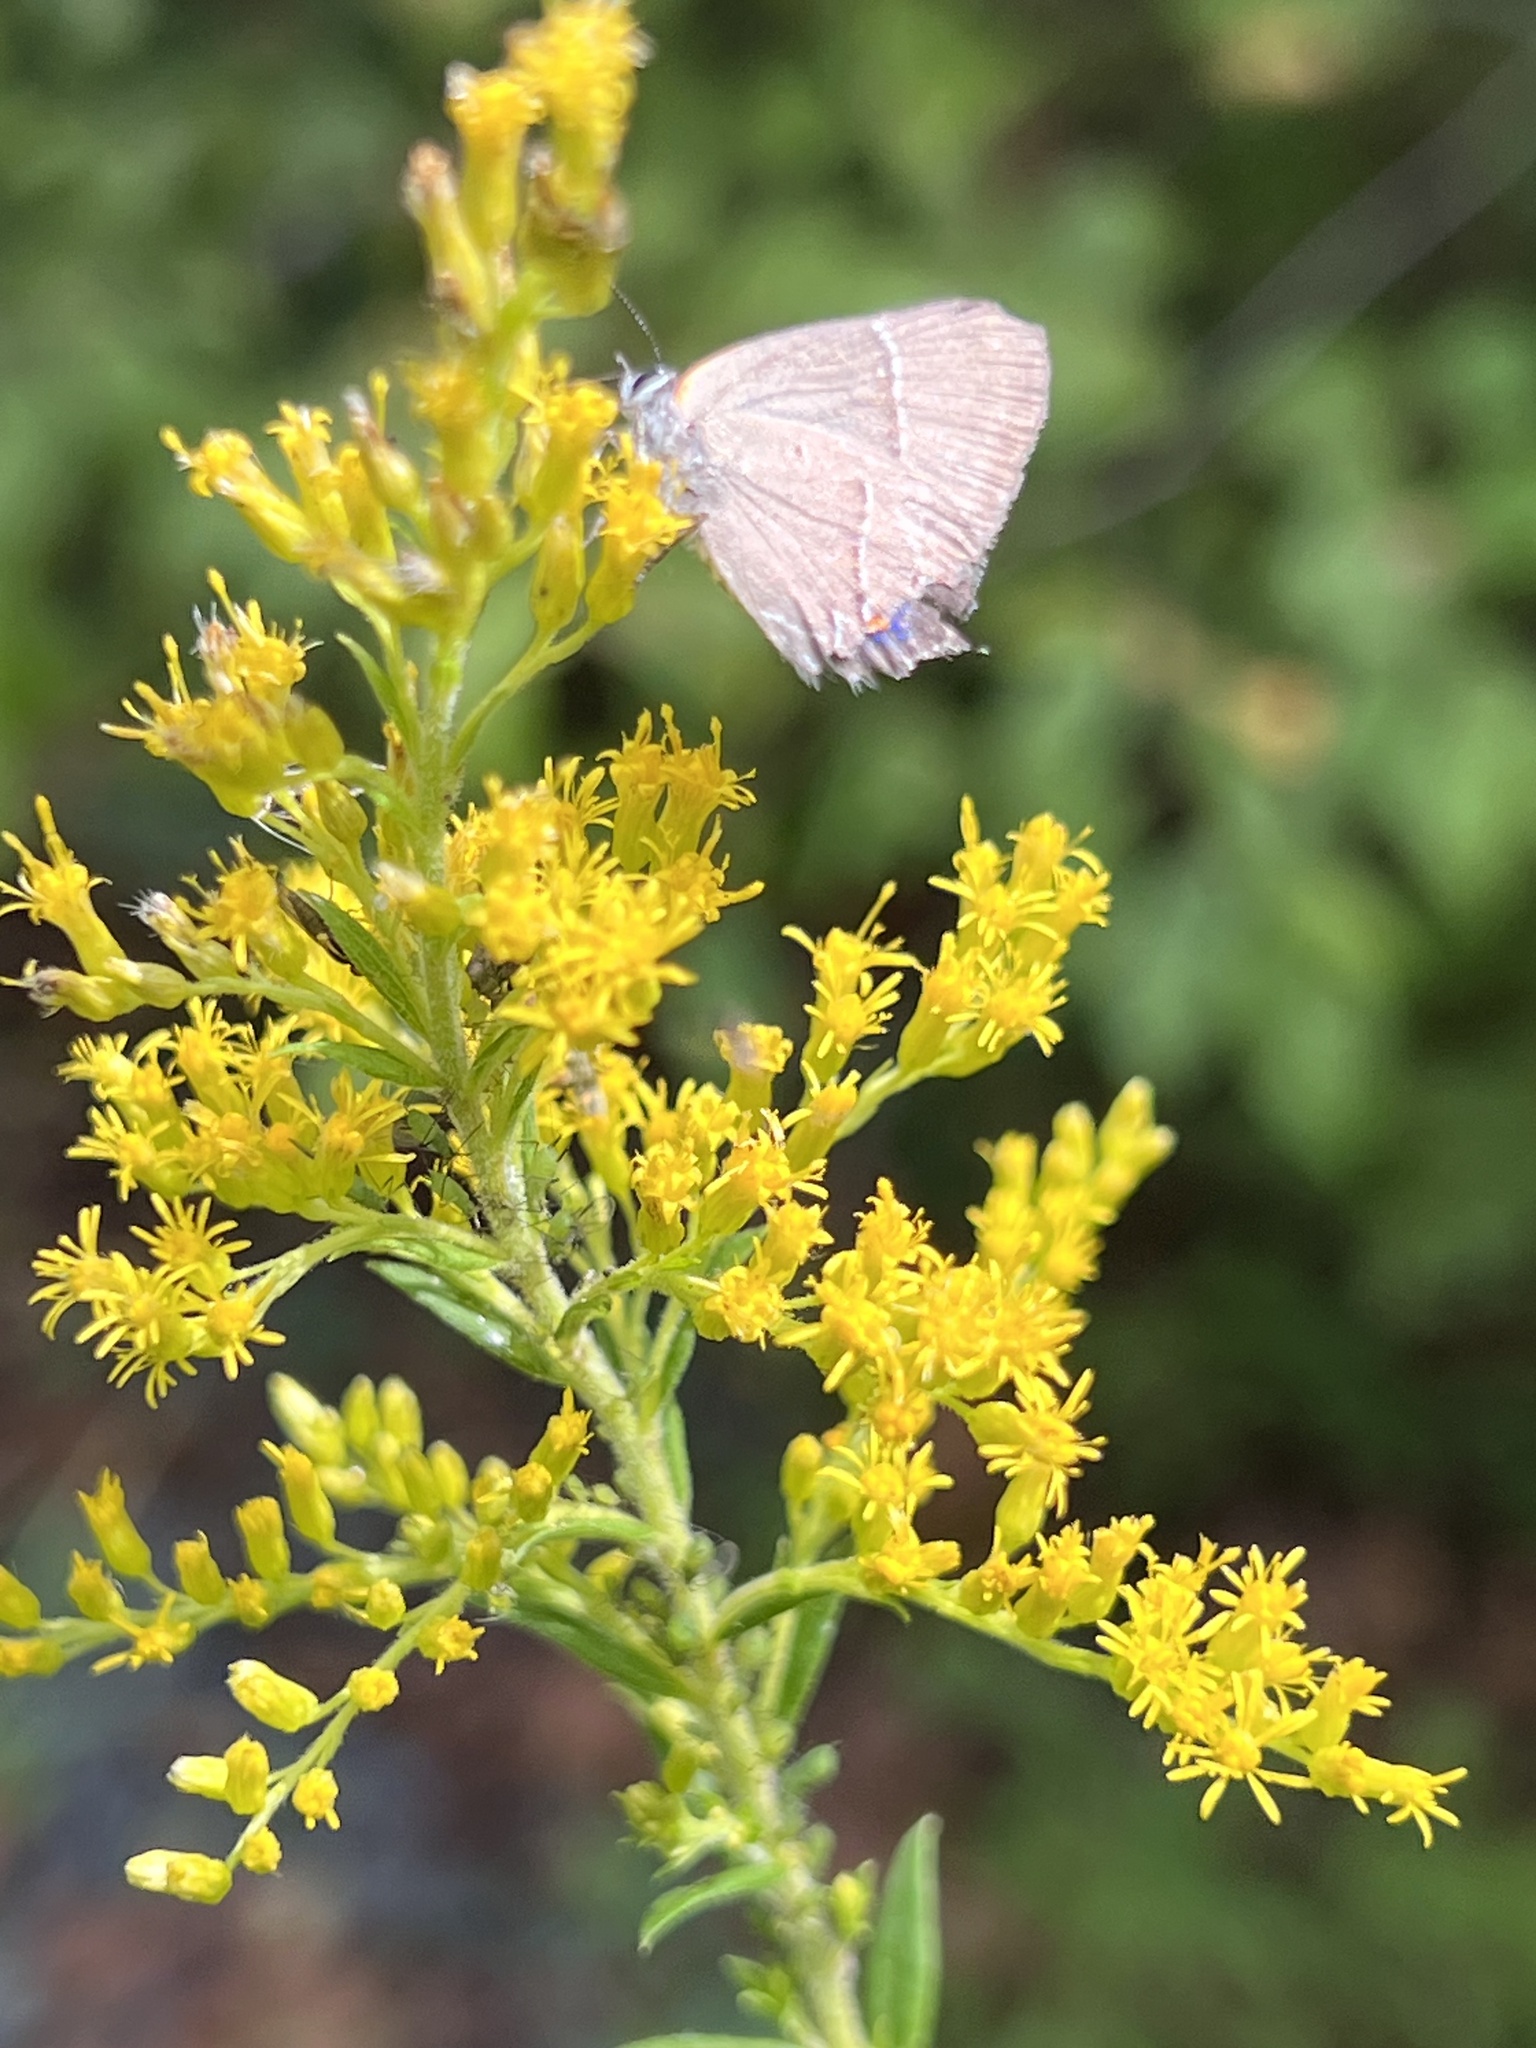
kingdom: Animalia
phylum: Arthropoda
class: Insecta
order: Lepidoptera
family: Lycaenidae
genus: Parrhasius
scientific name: Parrhasius m-album
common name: White m hairstreak
